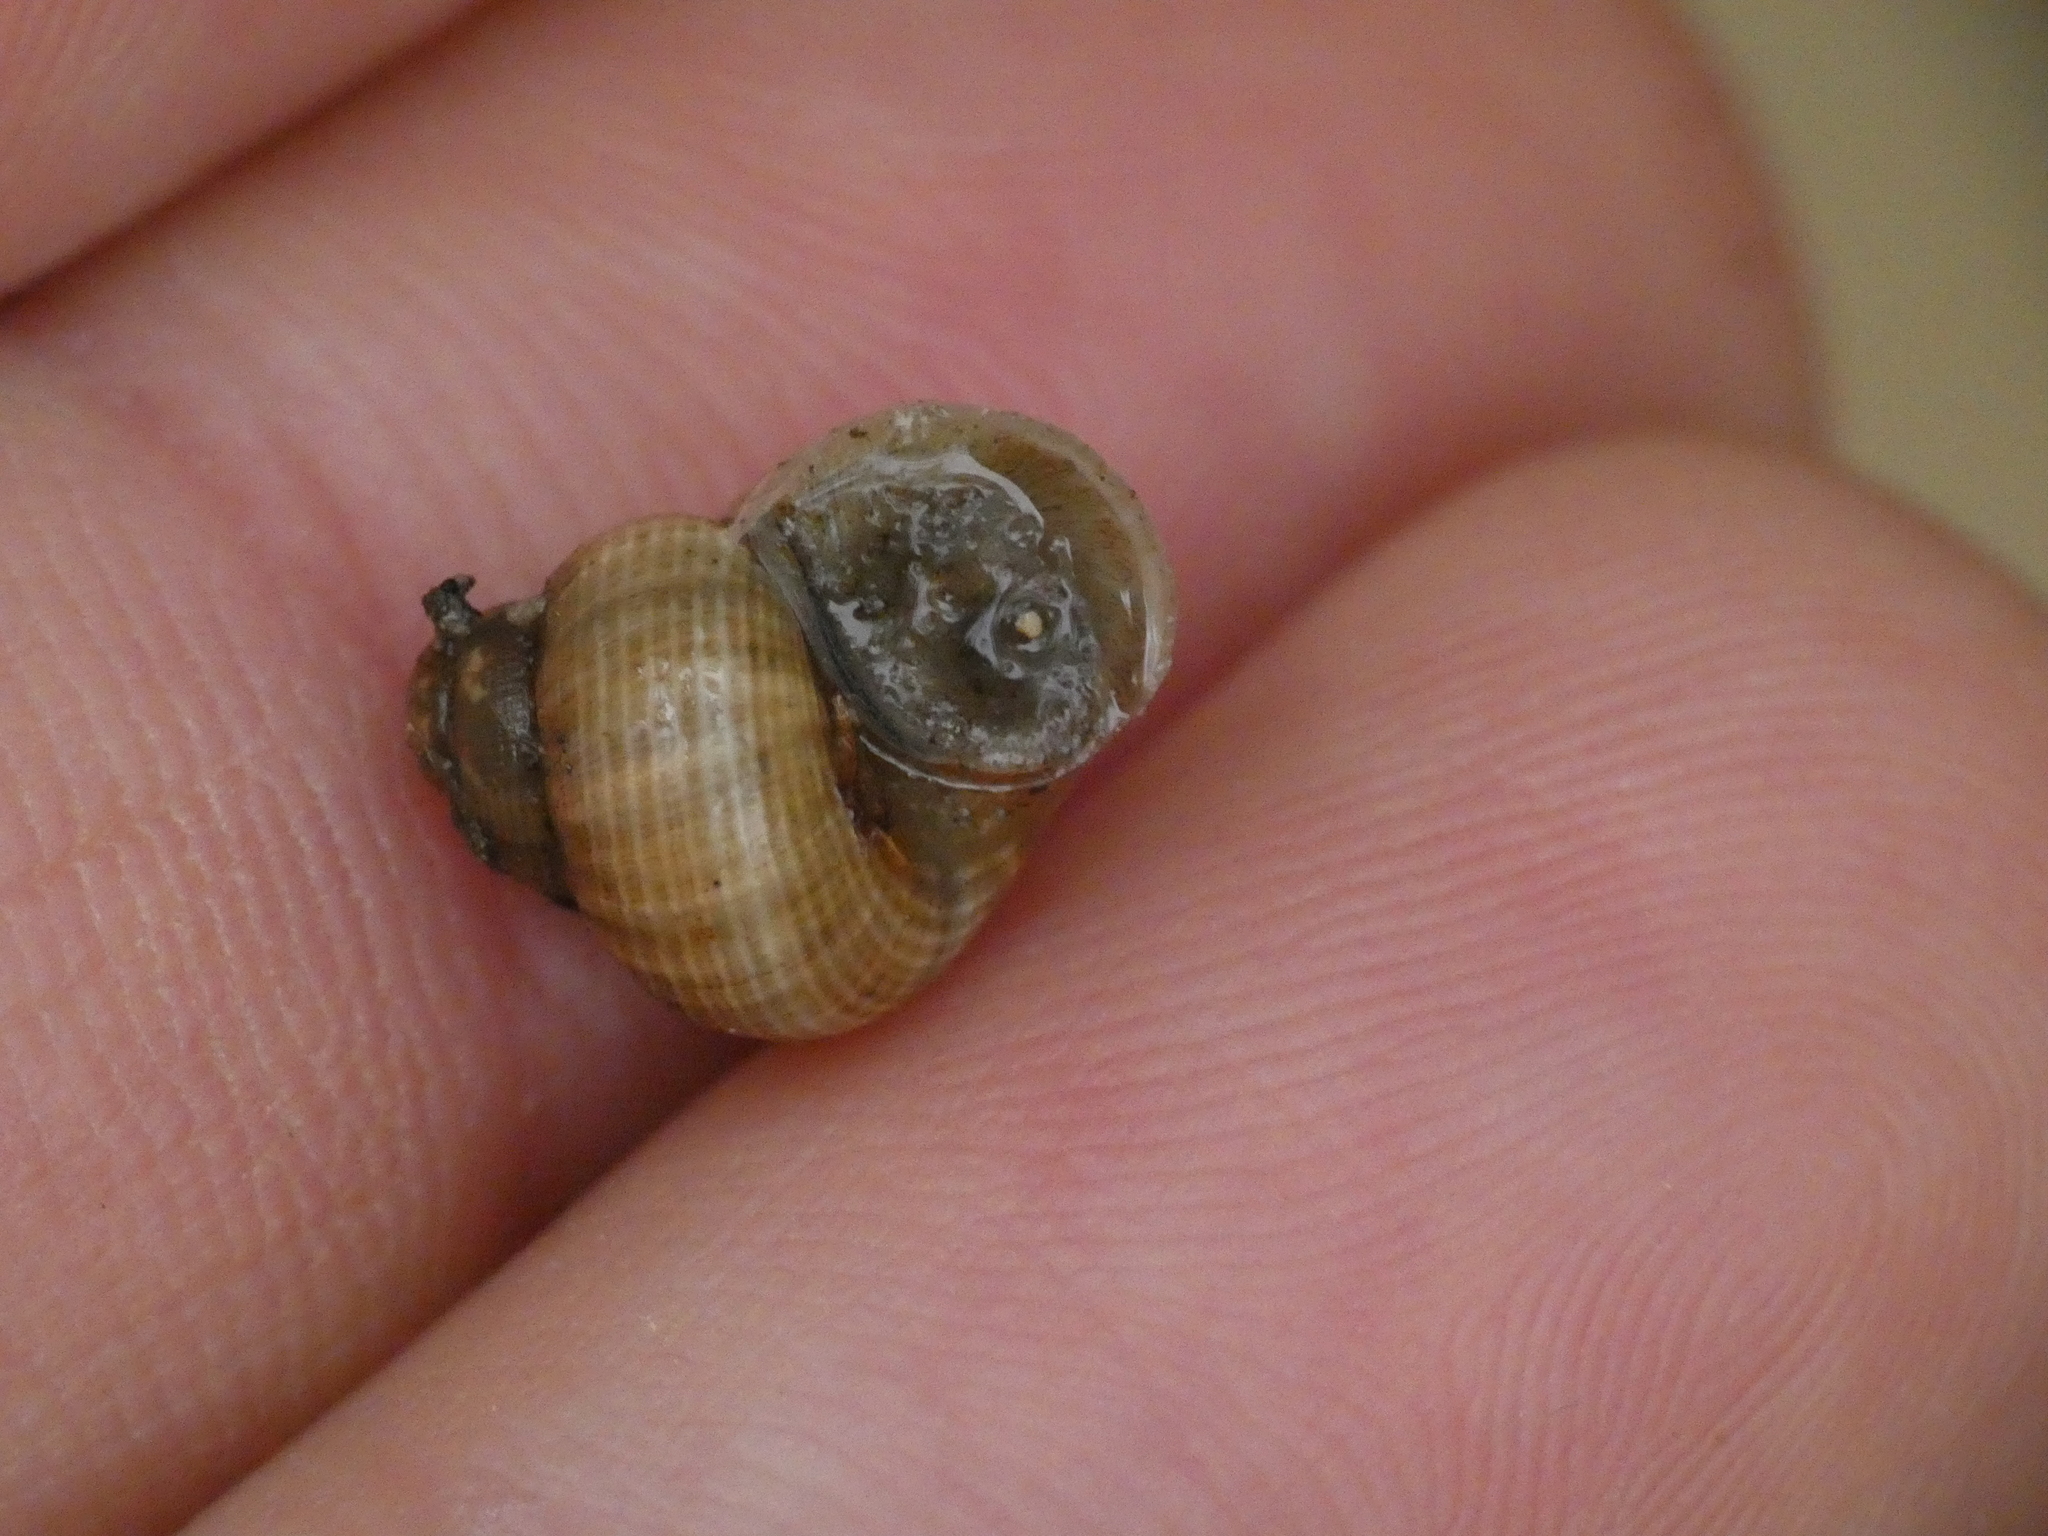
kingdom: Animalia
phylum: Mollusca
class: Gastropoda
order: Littorinimorpha
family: Pomatiidae
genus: Pomatias
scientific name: Pomatias elegans
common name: Red-mouthed snail
